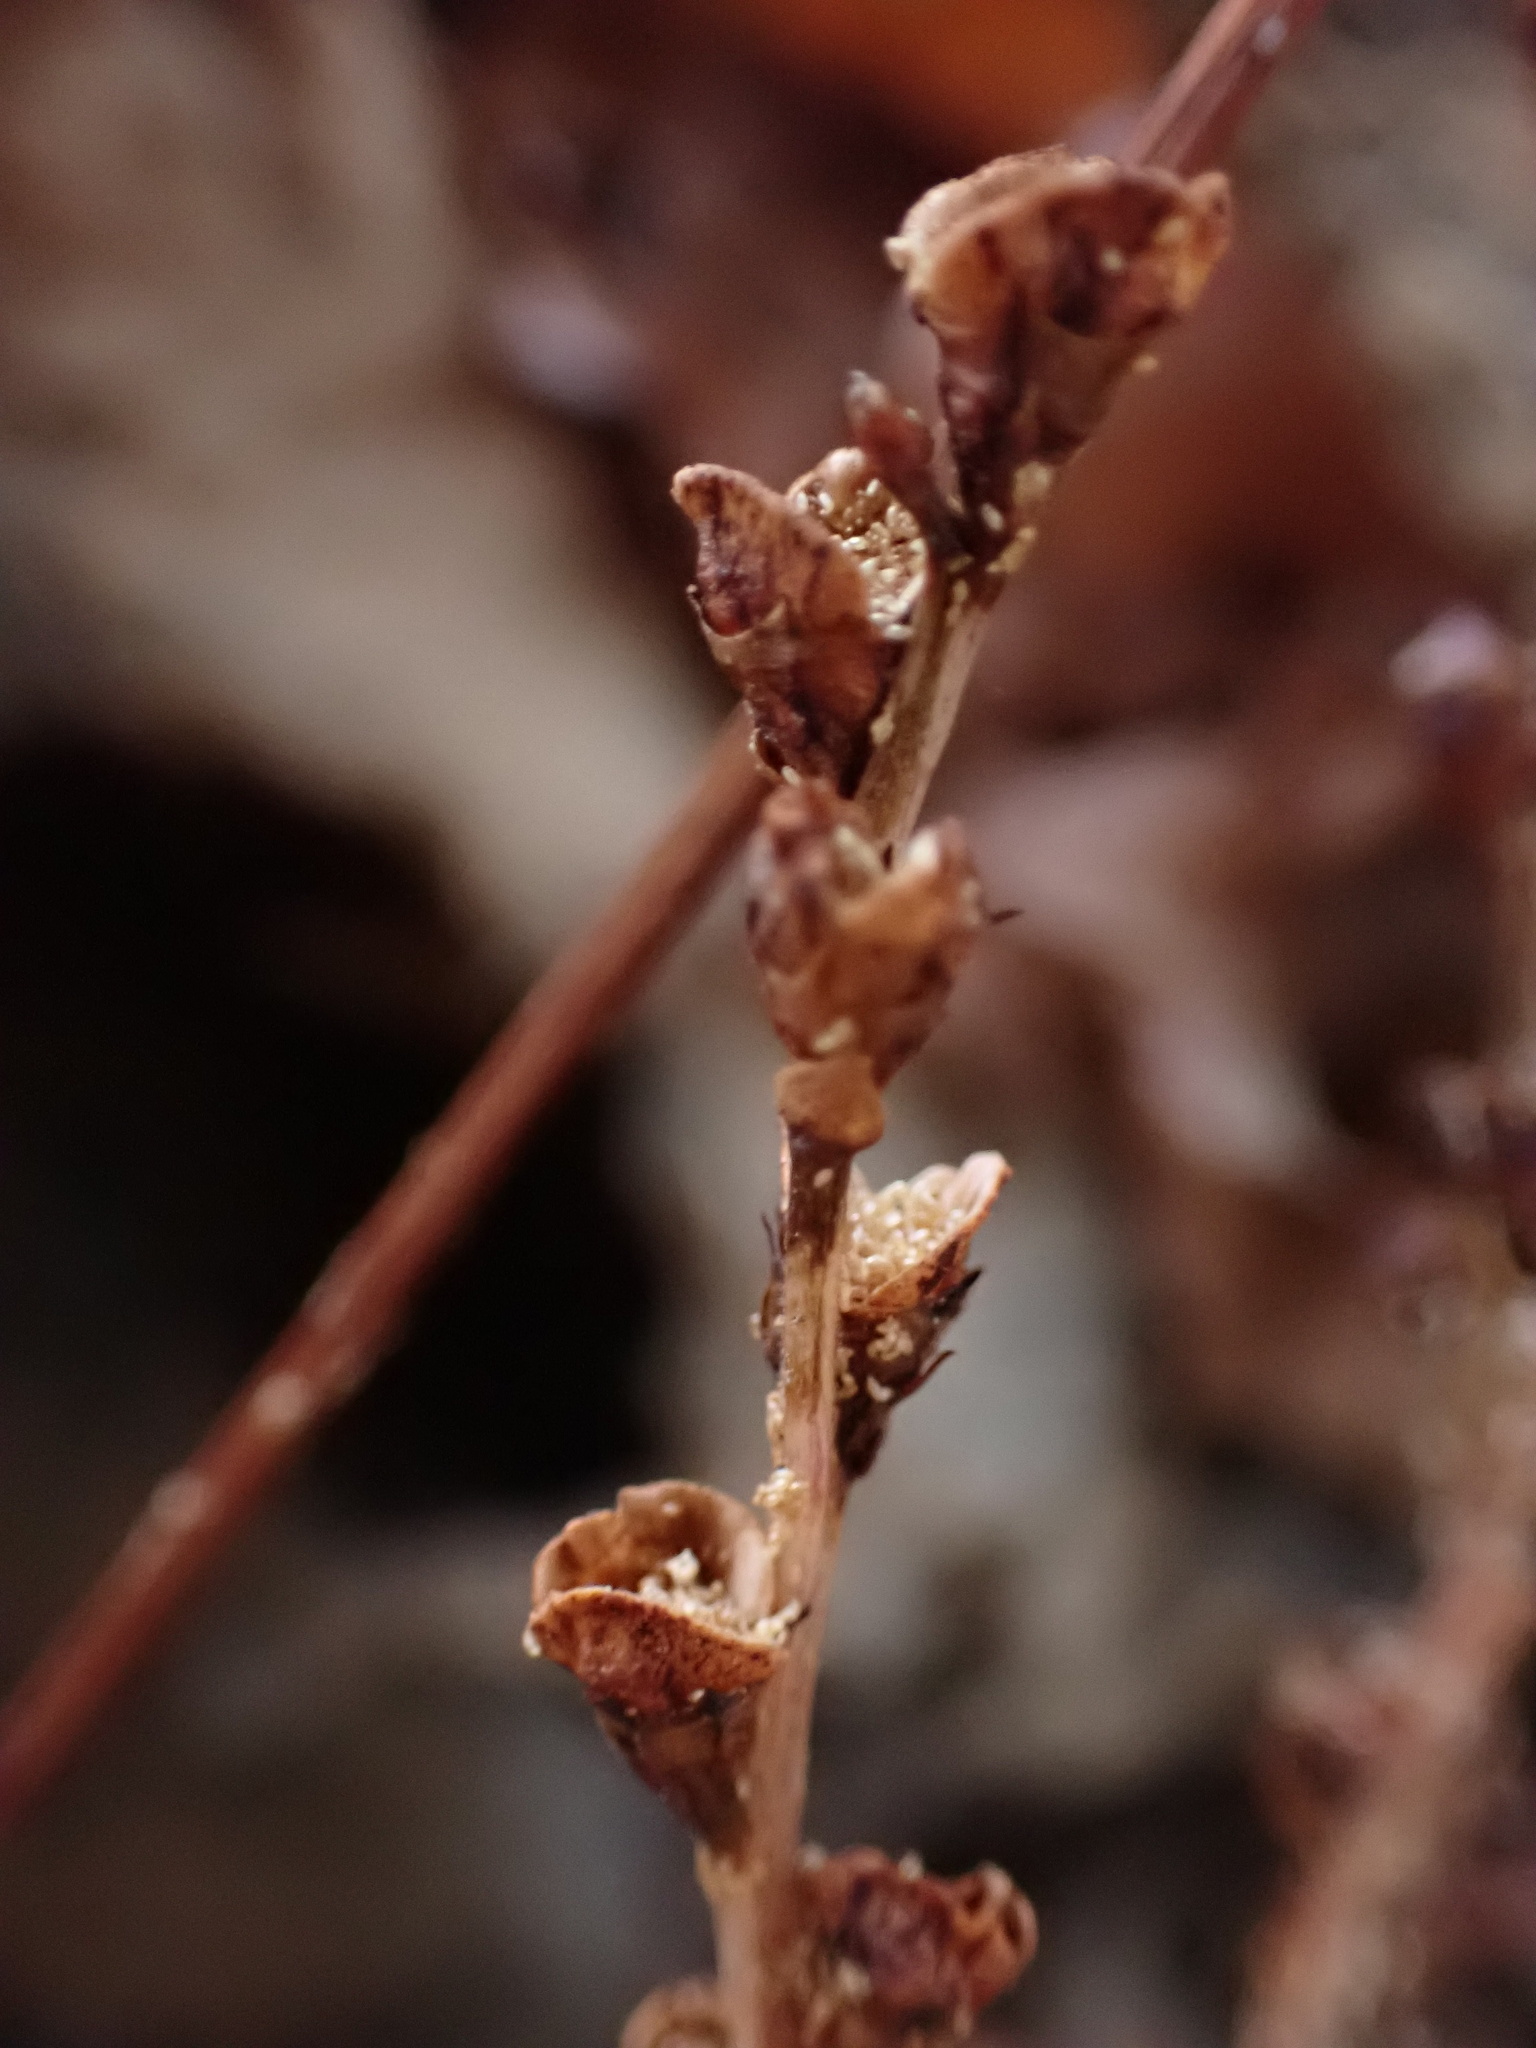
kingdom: Plantae
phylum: Tracheophyta
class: Magnoliopsida
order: Lamiales
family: Orobanchaceae
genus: Epifagus
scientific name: Epifagus virginiana
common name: Beechdrops
